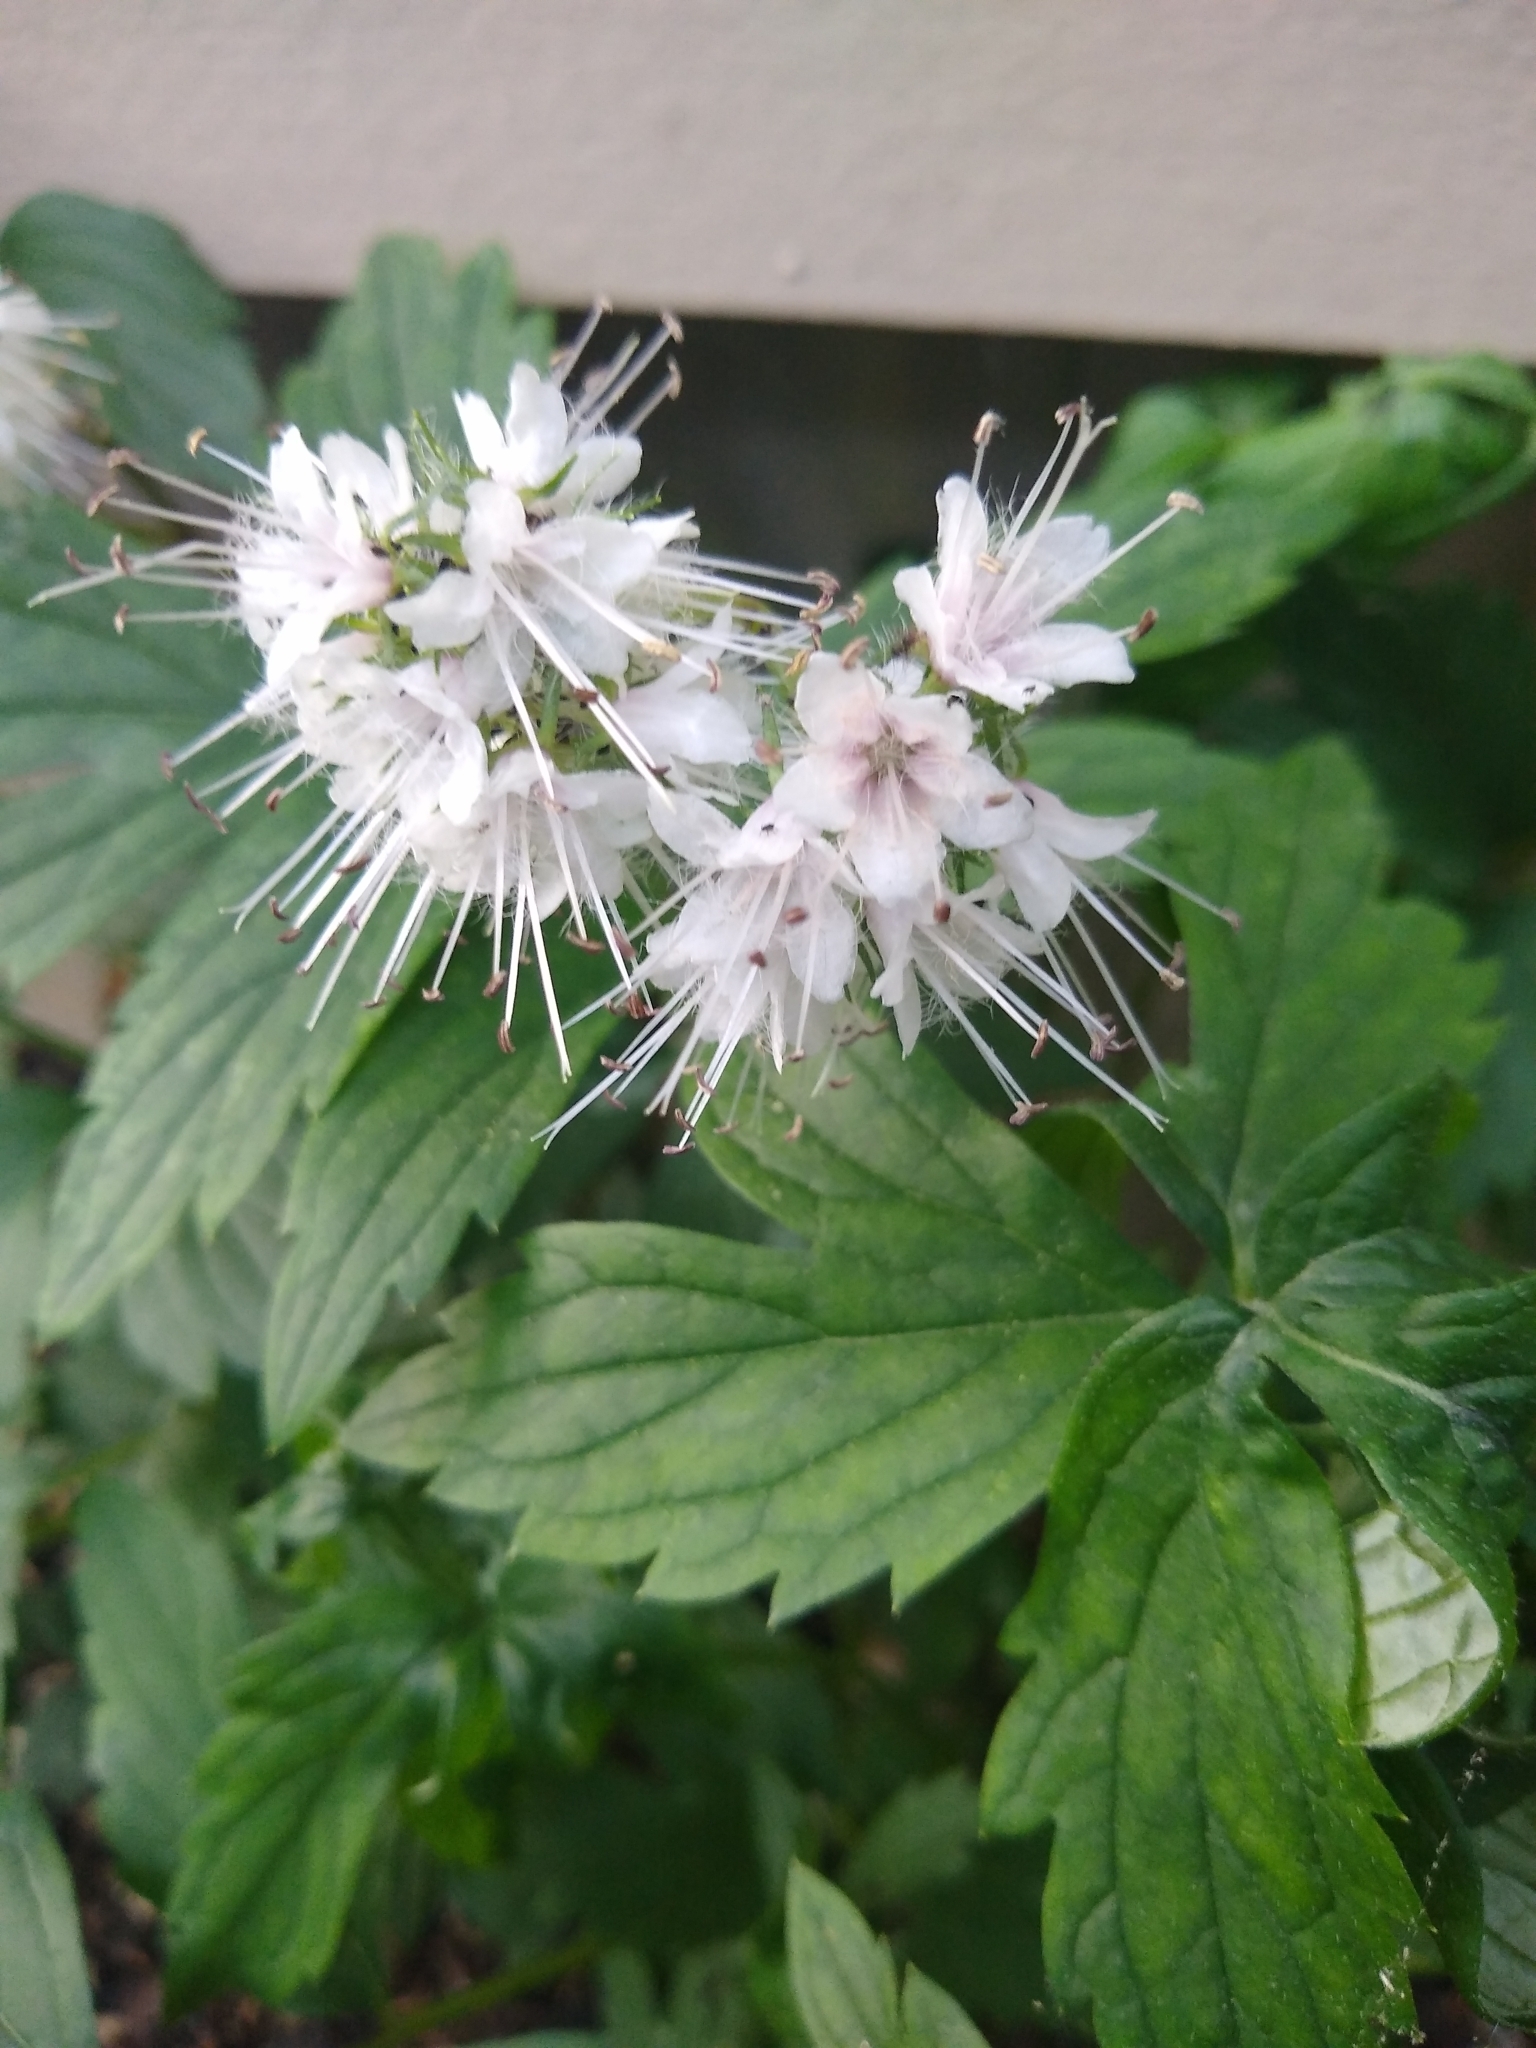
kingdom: Plantae
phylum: Tracheophyta
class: Magnoliopsida
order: Boraginales
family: Hydrophyllaceae
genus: Hydrophyllum
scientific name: Hydrophyllum virginianum
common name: Virginia waterleaf
